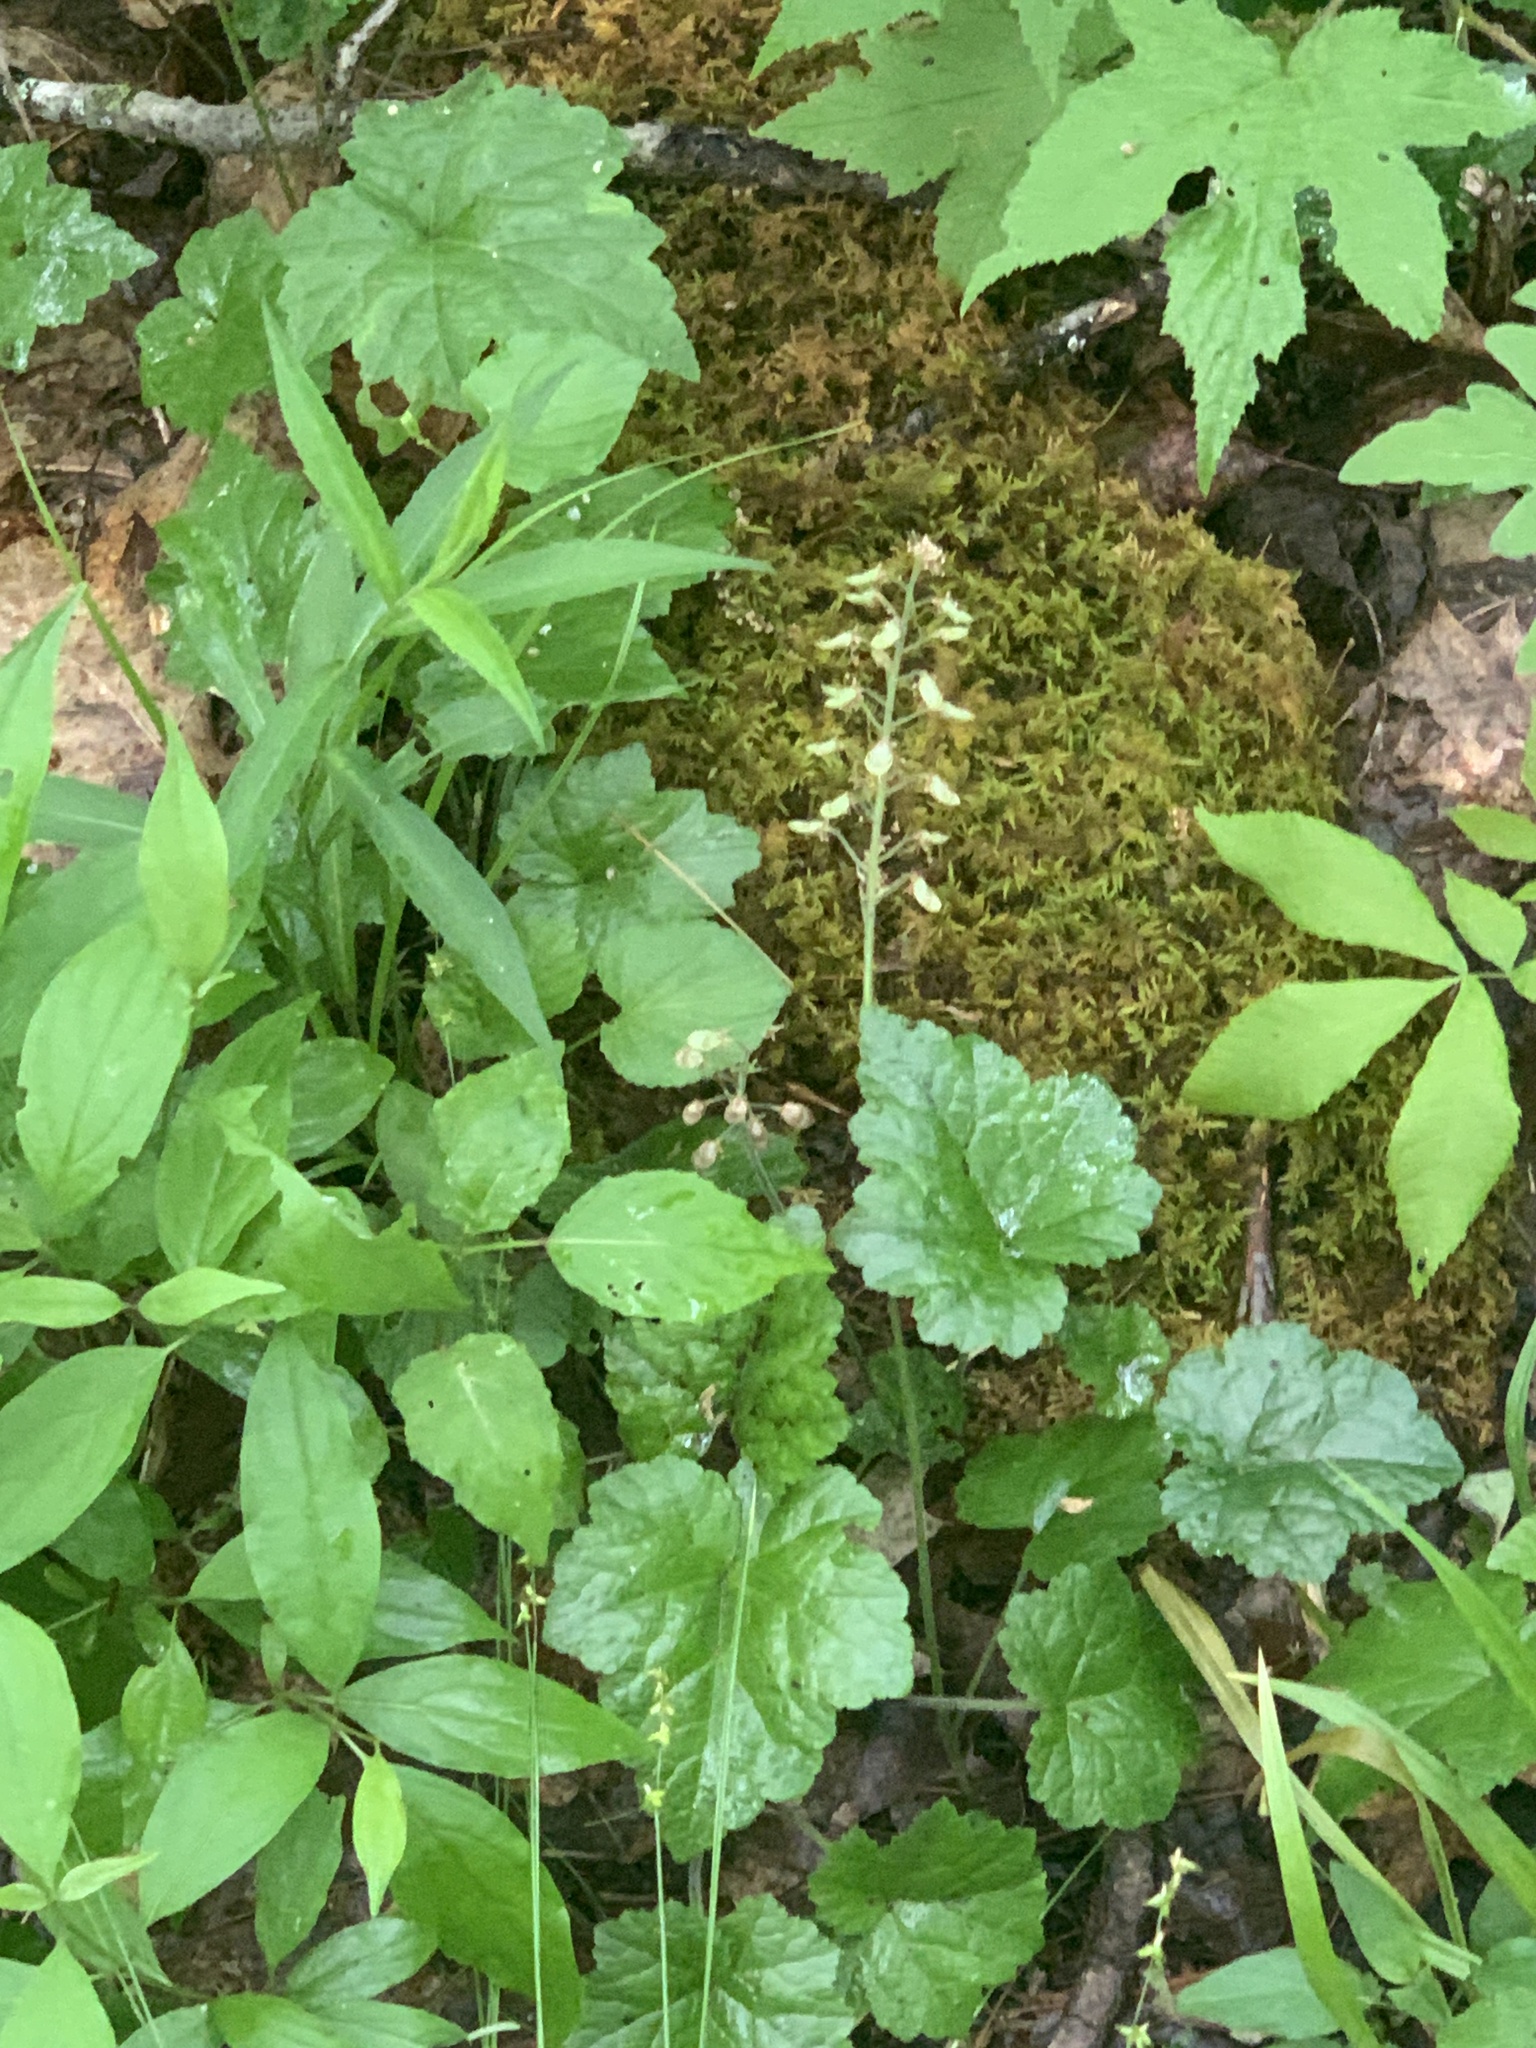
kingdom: Plantae
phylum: Tracheophyta
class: Magnoliopsida
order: Saxifragales
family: Saxifragaceae
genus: Tiarella
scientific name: Tiarella stolonifera
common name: Stoloniferous foamflower
